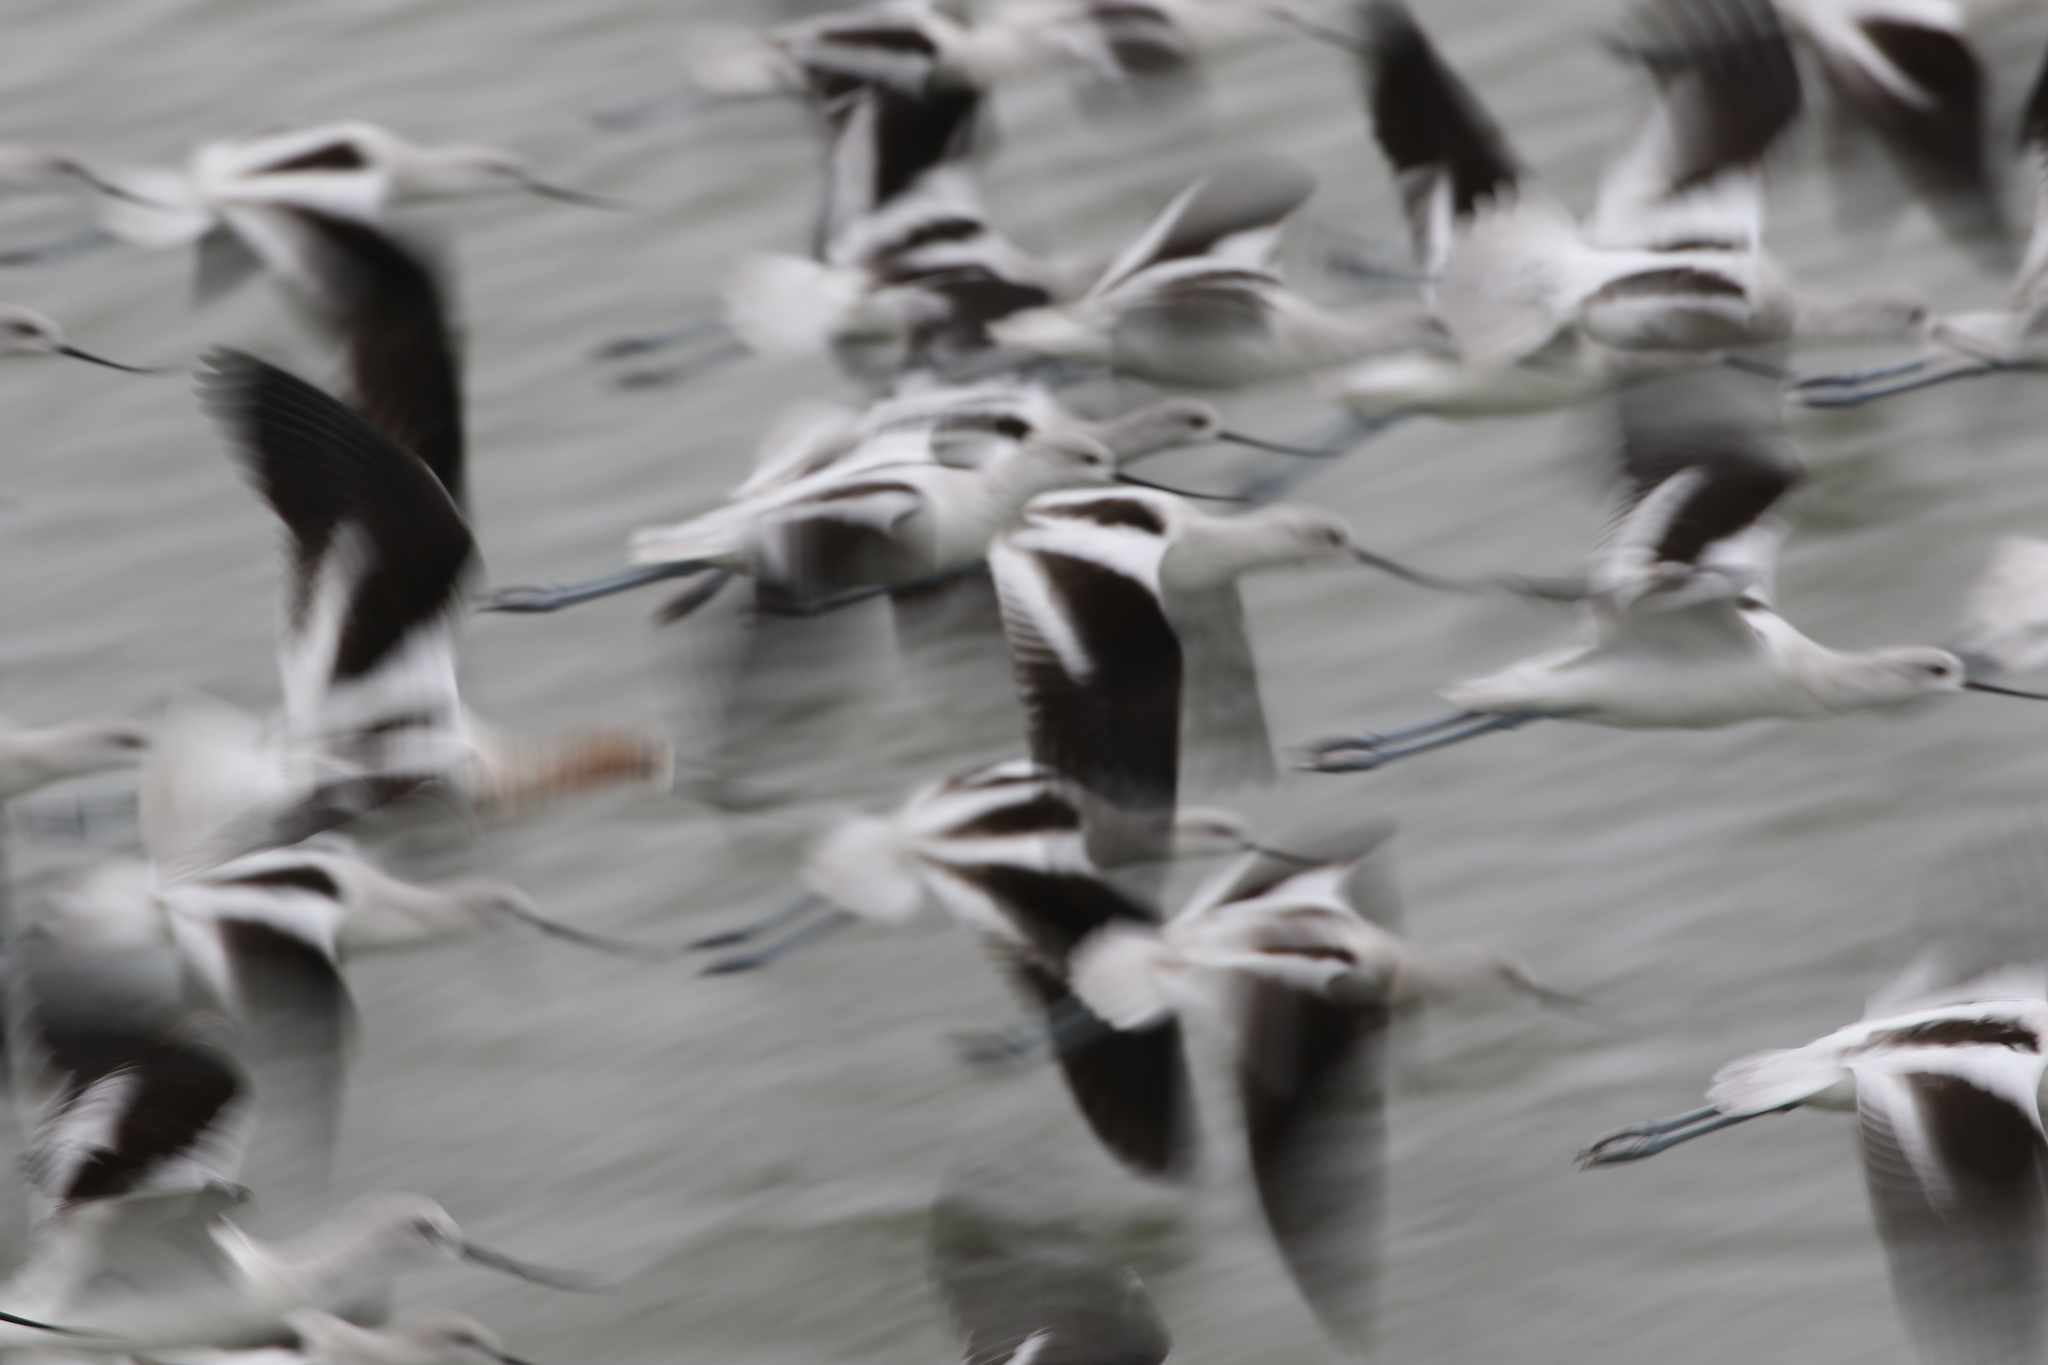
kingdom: Animalia
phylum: Chordata
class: Aves
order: Charadriiformes
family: Recurvirostridae
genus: Recurvirostra
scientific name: Recurvirostra americana
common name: American avocet
